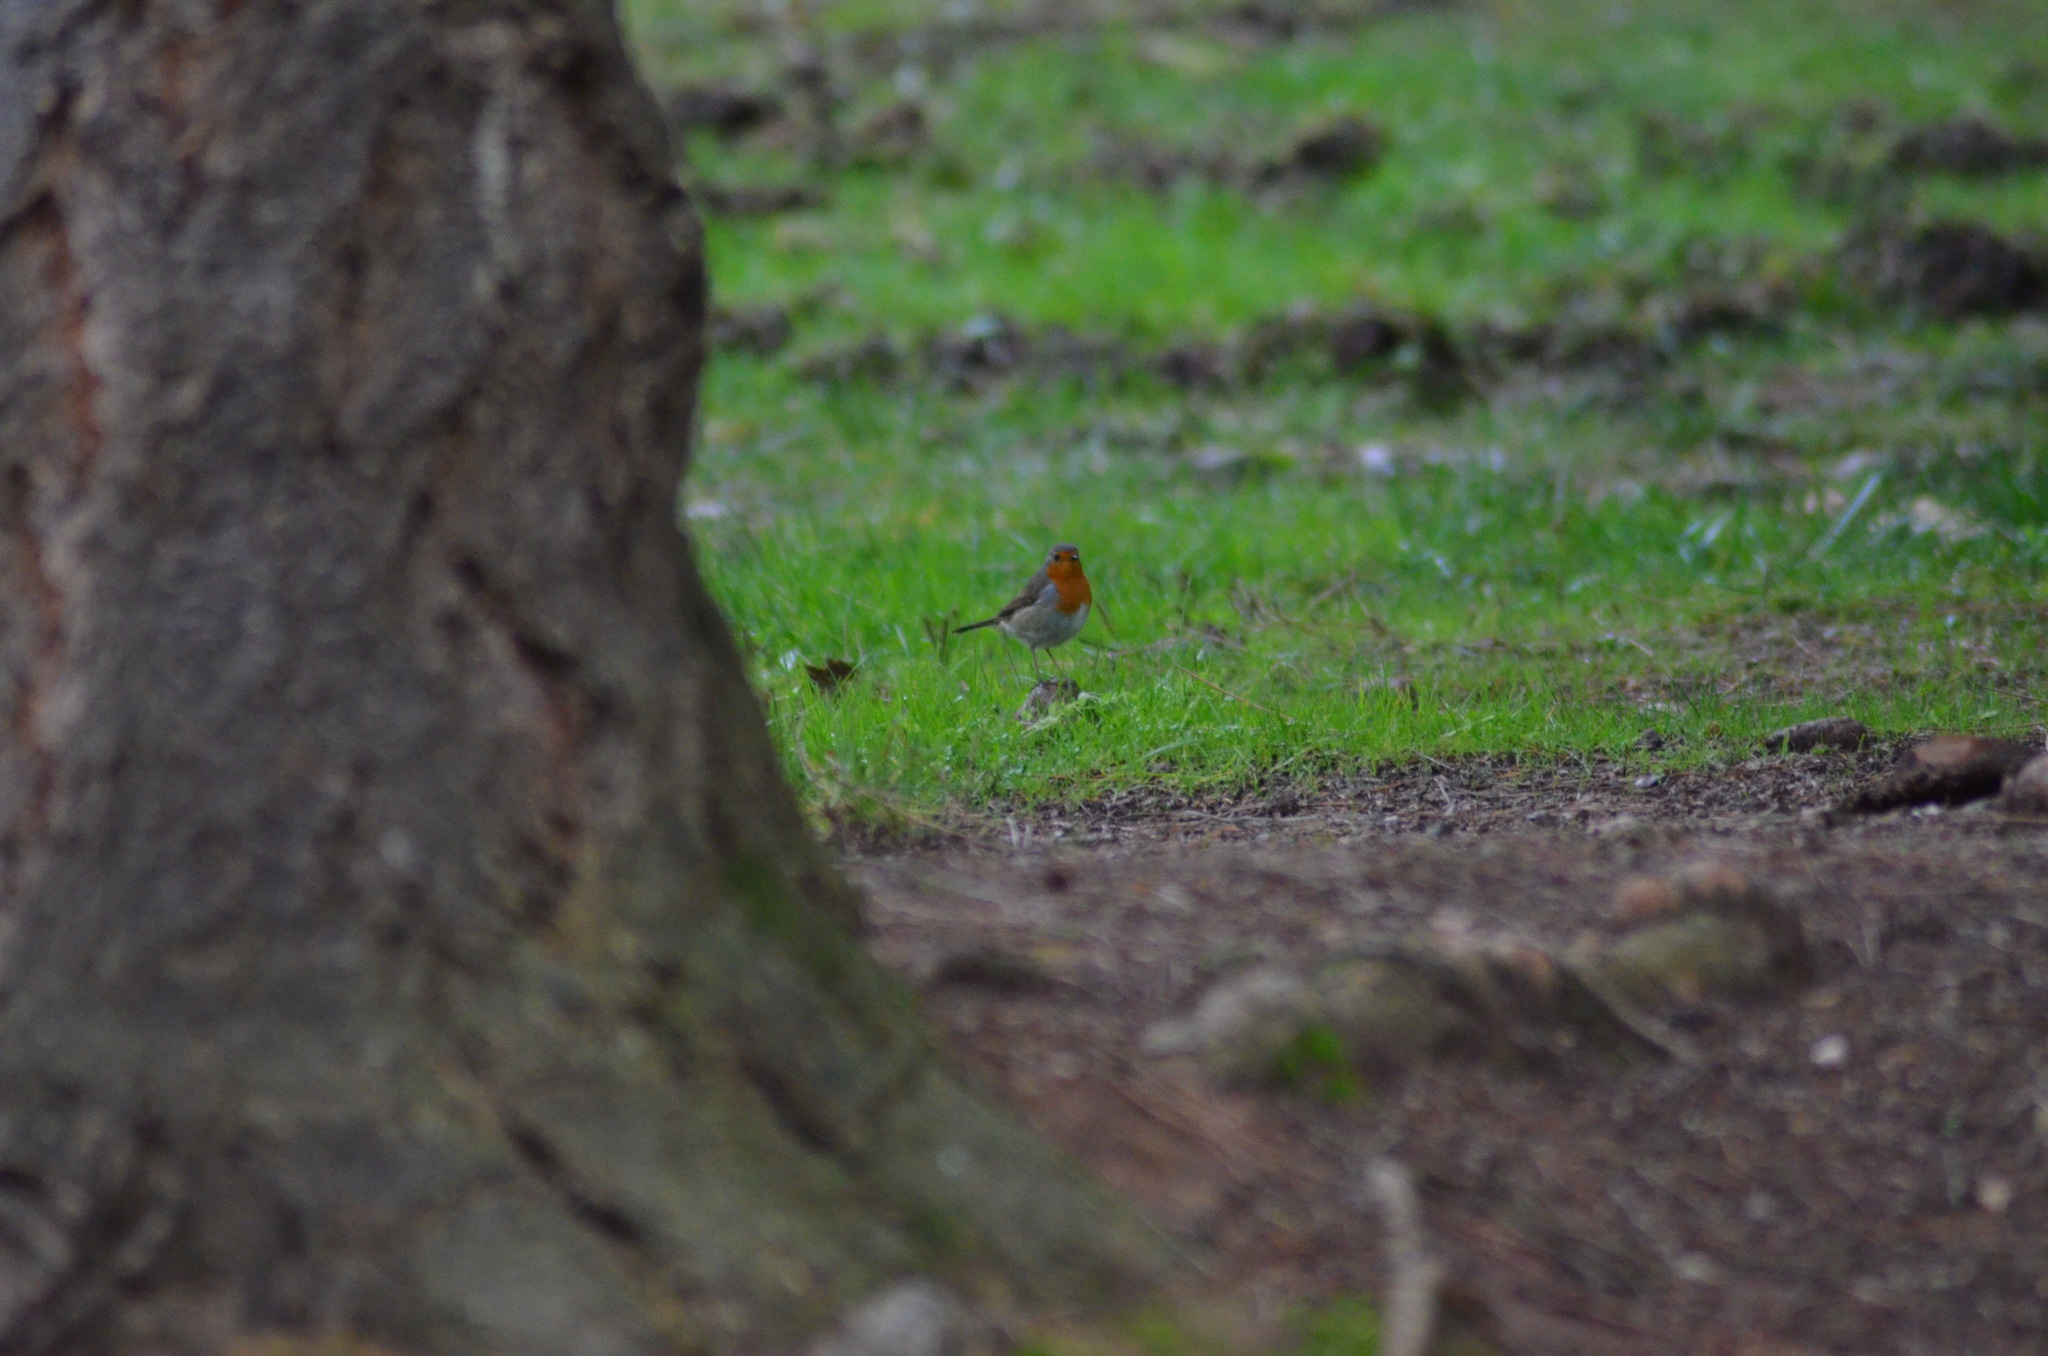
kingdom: Animalia
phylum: Chordata
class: Aves
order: Passeriformes
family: Muscicapidae
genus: Erithacus
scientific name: Erithacus rubecula
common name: European robin
